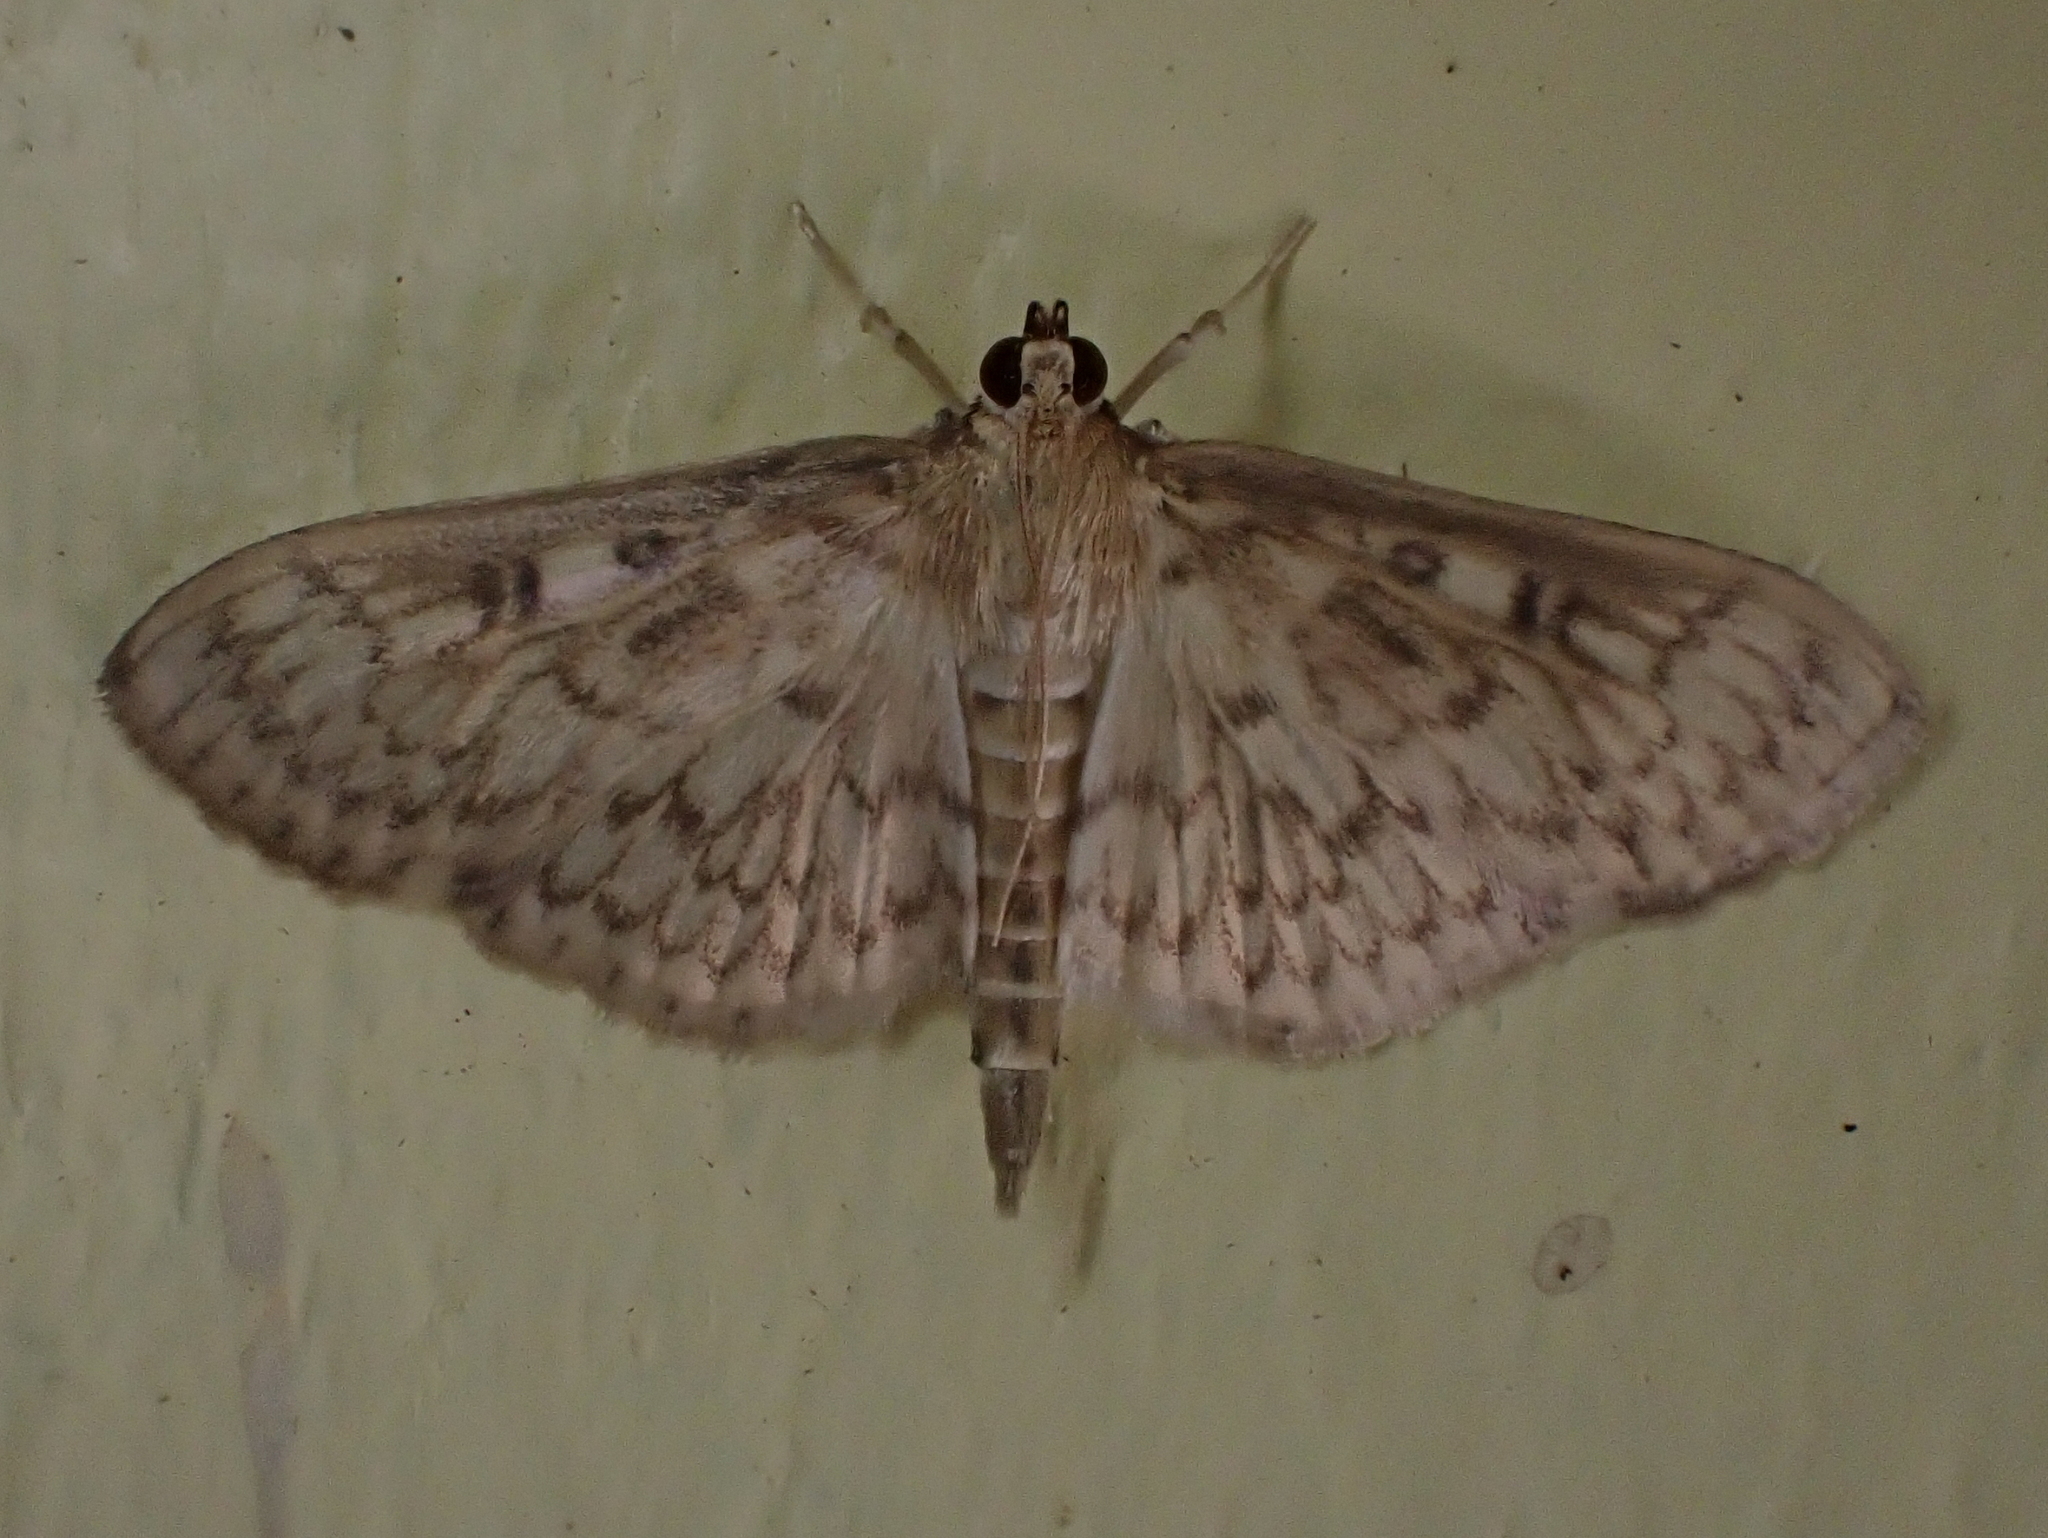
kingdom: Animalia
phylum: Arthropoda
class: Insecta
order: Lepidoptera
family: Crambidae
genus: Herpetogramma
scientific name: Herpetogramma pertextalis
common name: Bold-feathered grass moth
